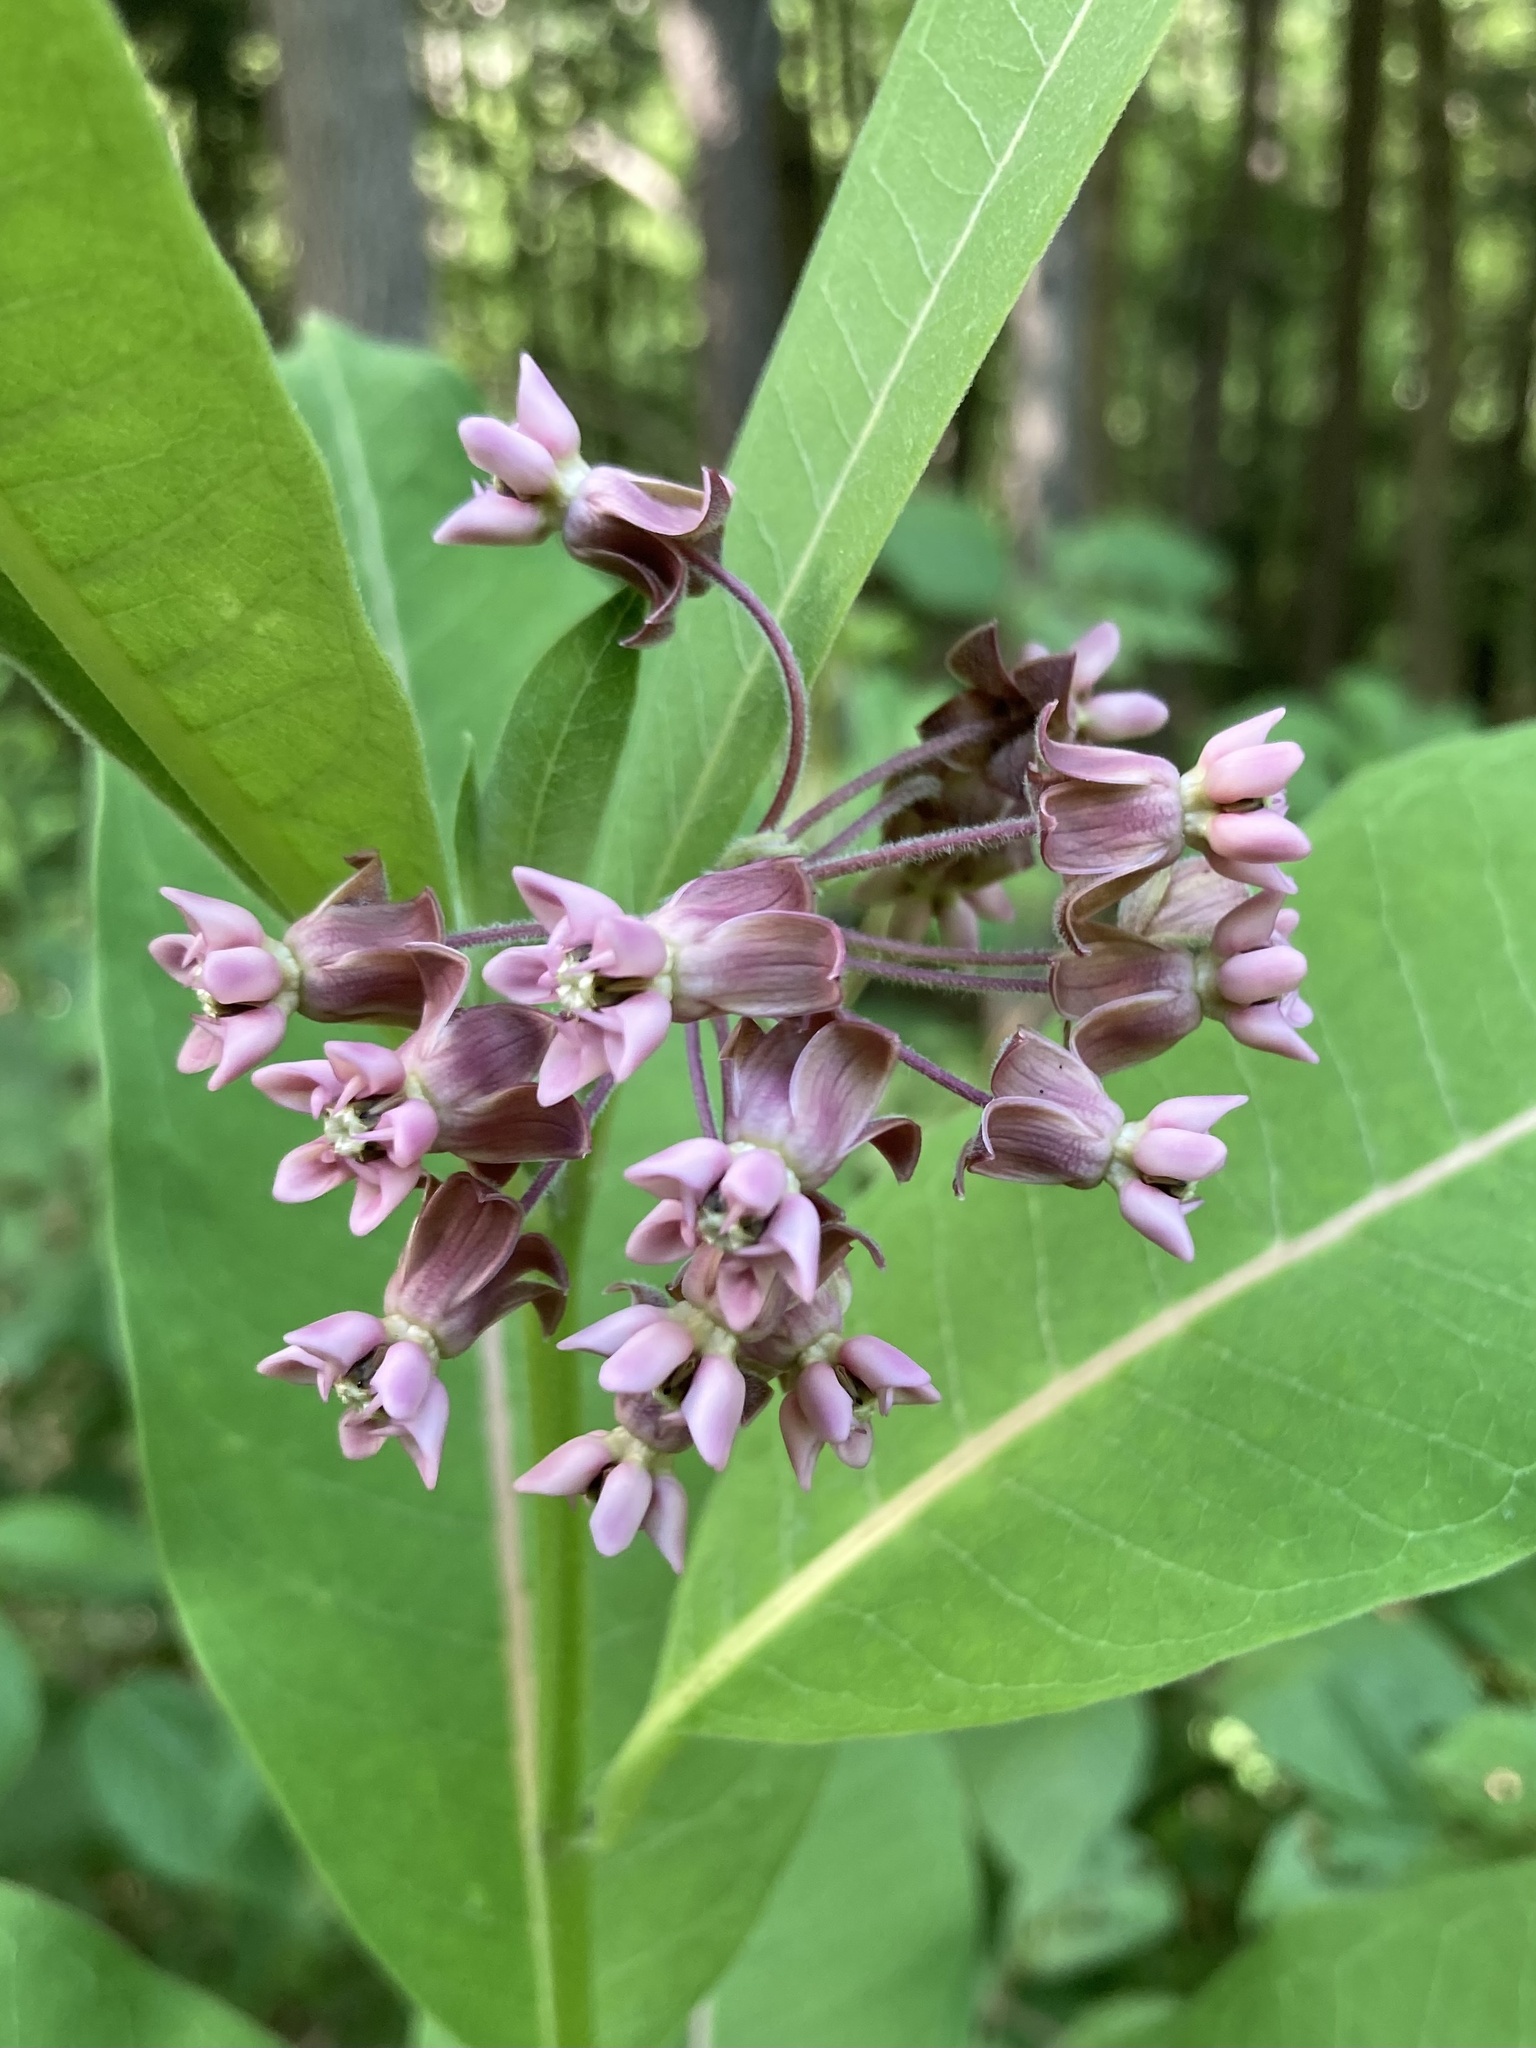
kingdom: Plantae
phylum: Tracheophyta
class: Magnoliopsida
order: Gentianales
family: Apocynaceae
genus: Asclepias
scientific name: Asclepias syriaca
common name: Common milkweed
